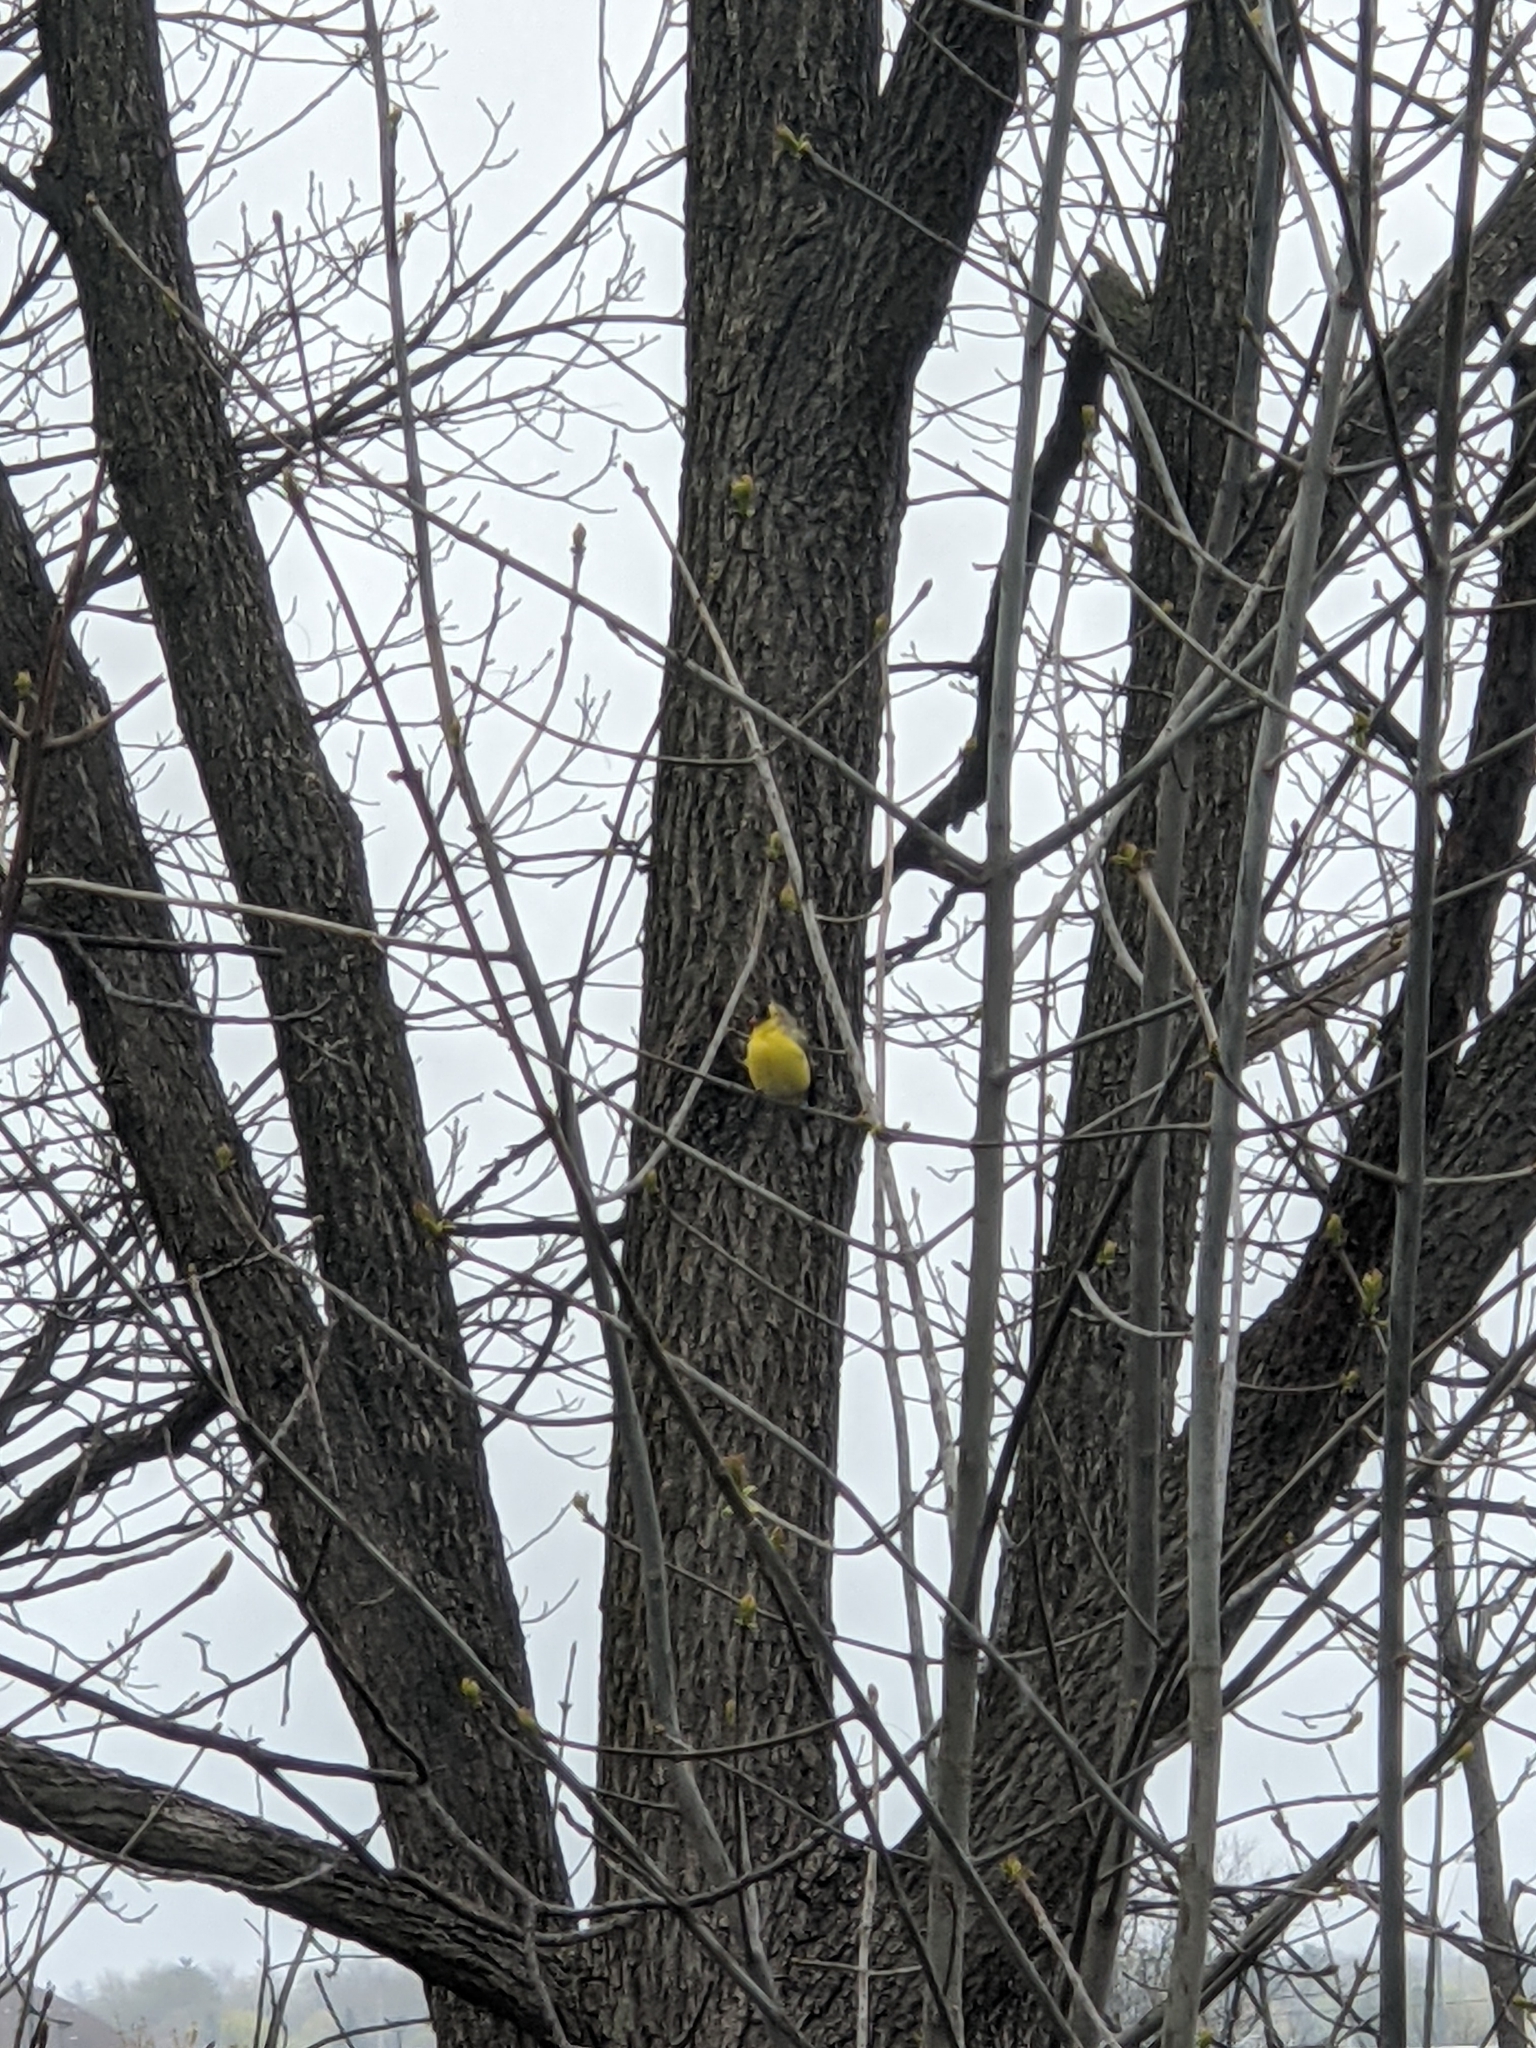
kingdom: Animalia
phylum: Chordata
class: Aves
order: Passeriformes
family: Fringillidae
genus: Spinus
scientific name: Spinus tristis
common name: American goldfinch
